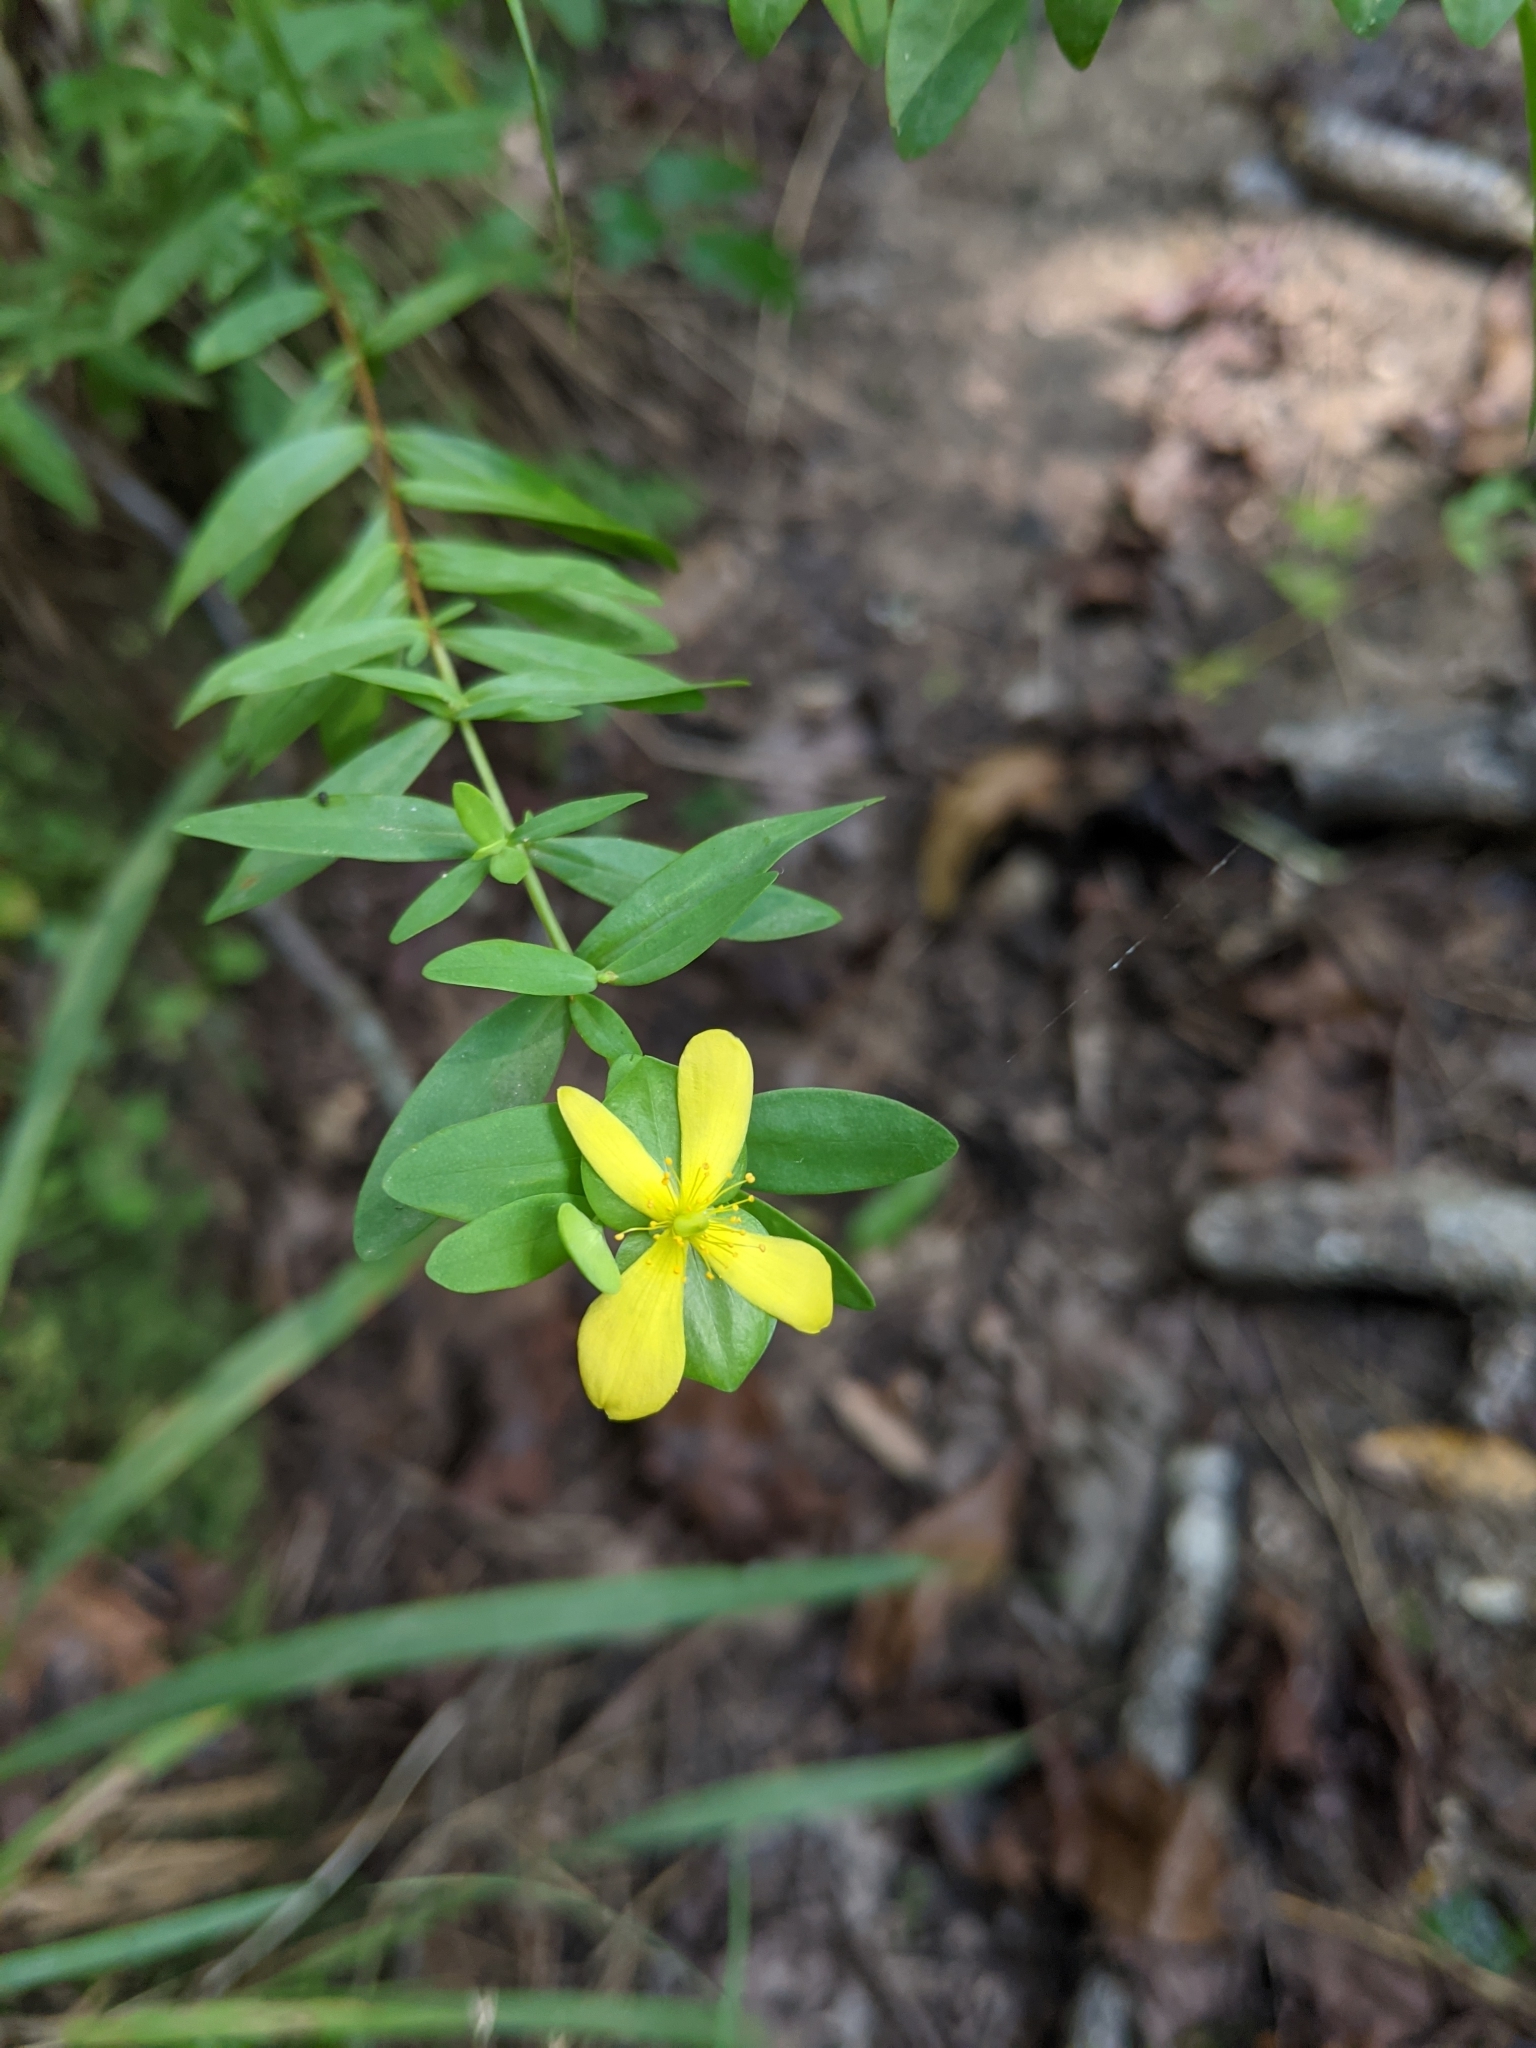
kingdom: Plantae
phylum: Tracheophyta
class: Magnoliopsida
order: Malpighiales
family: Hypericaceae
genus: Hypericum
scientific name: Hypericum hypericoides
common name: St. andrew's cross
